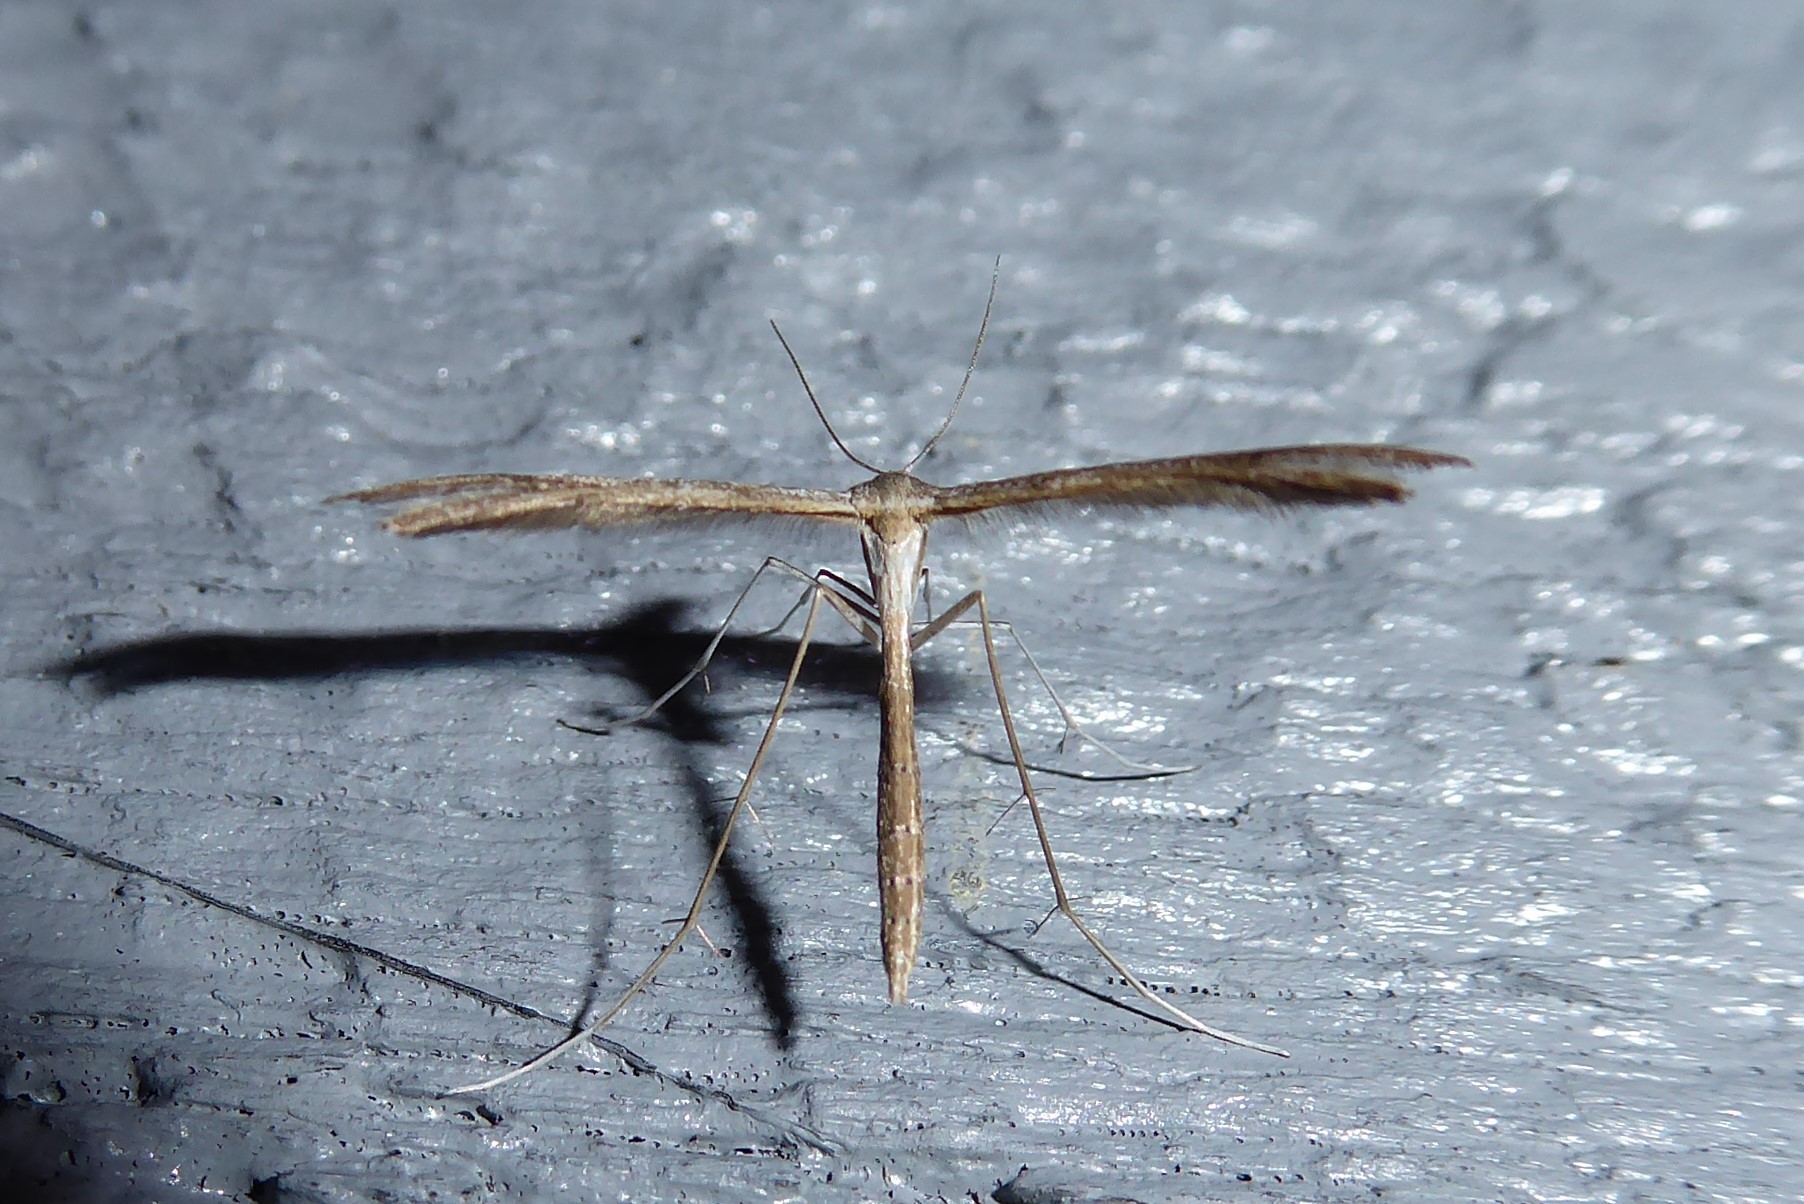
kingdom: Animalia
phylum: Arthropoda
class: Insecta
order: Lepidoptera
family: Pterophoridae
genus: Stenoptilia
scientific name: Stenoptilia zophodactylus
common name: Dowdy plume
